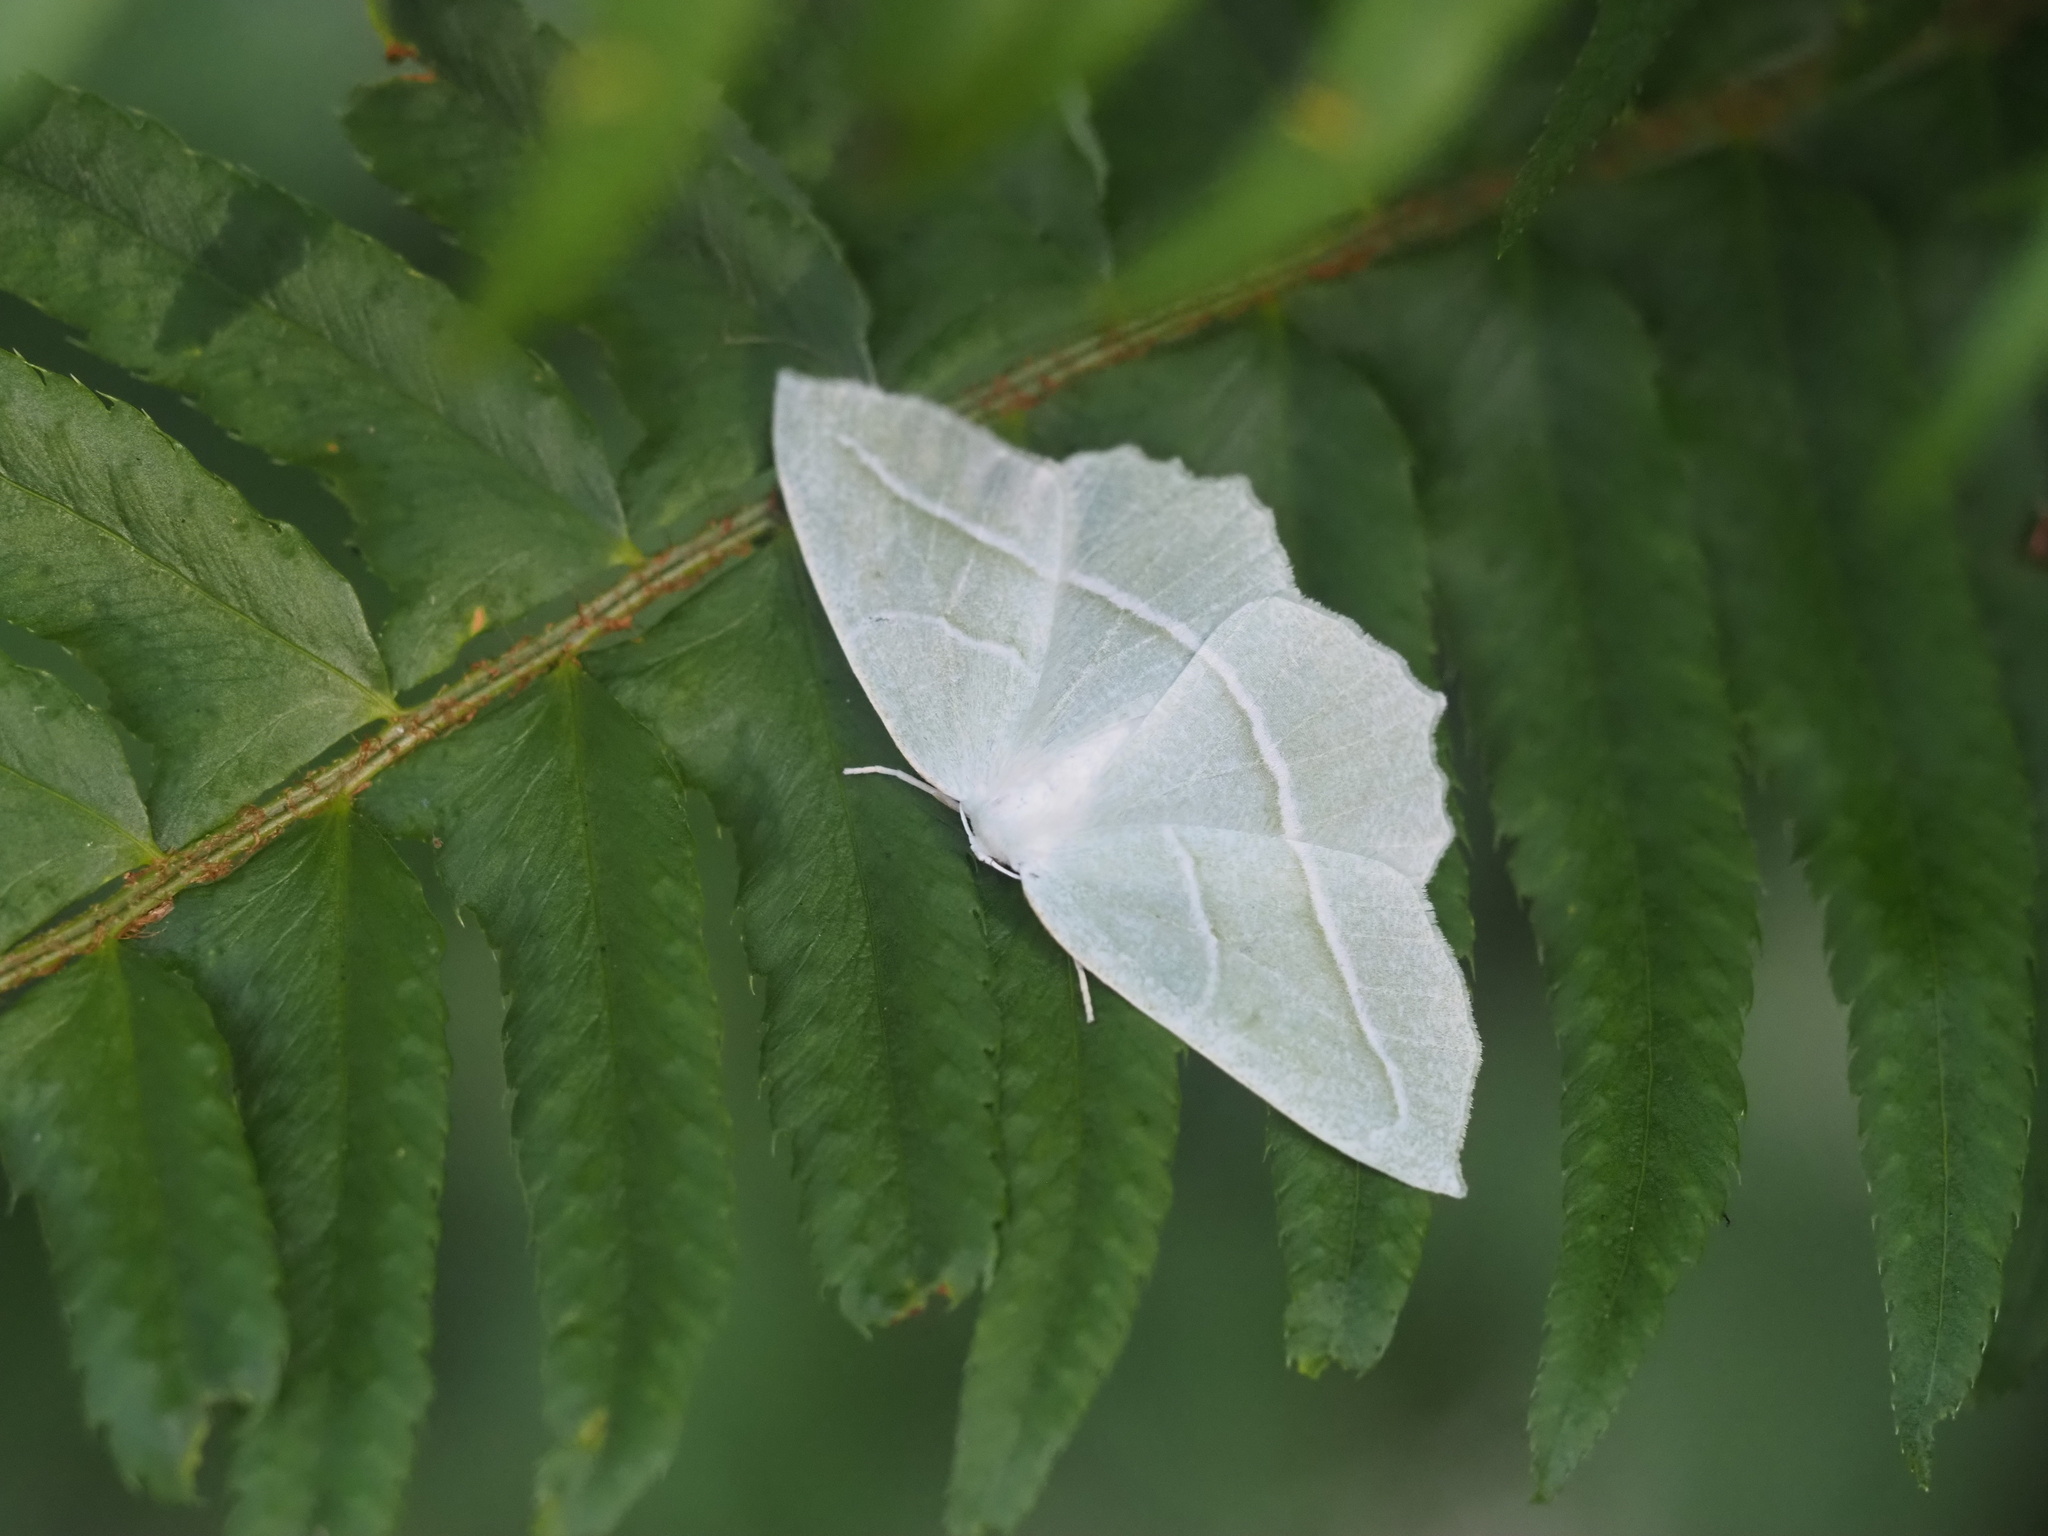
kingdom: Animalia
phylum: Arthropoda
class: Insecta
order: Lepidoptera
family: Geometridae
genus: Campaea
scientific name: Campaea perlata
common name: Fringed looper
